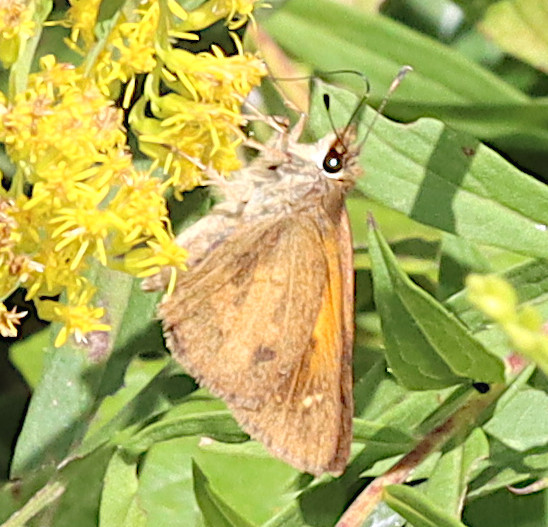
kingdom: Animalia
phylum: Arthropoda
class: Insecta
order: Lepidoptera
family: Hesperiidae
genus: Poanes
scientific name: Poanes viator
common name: Broad-winged skipper
